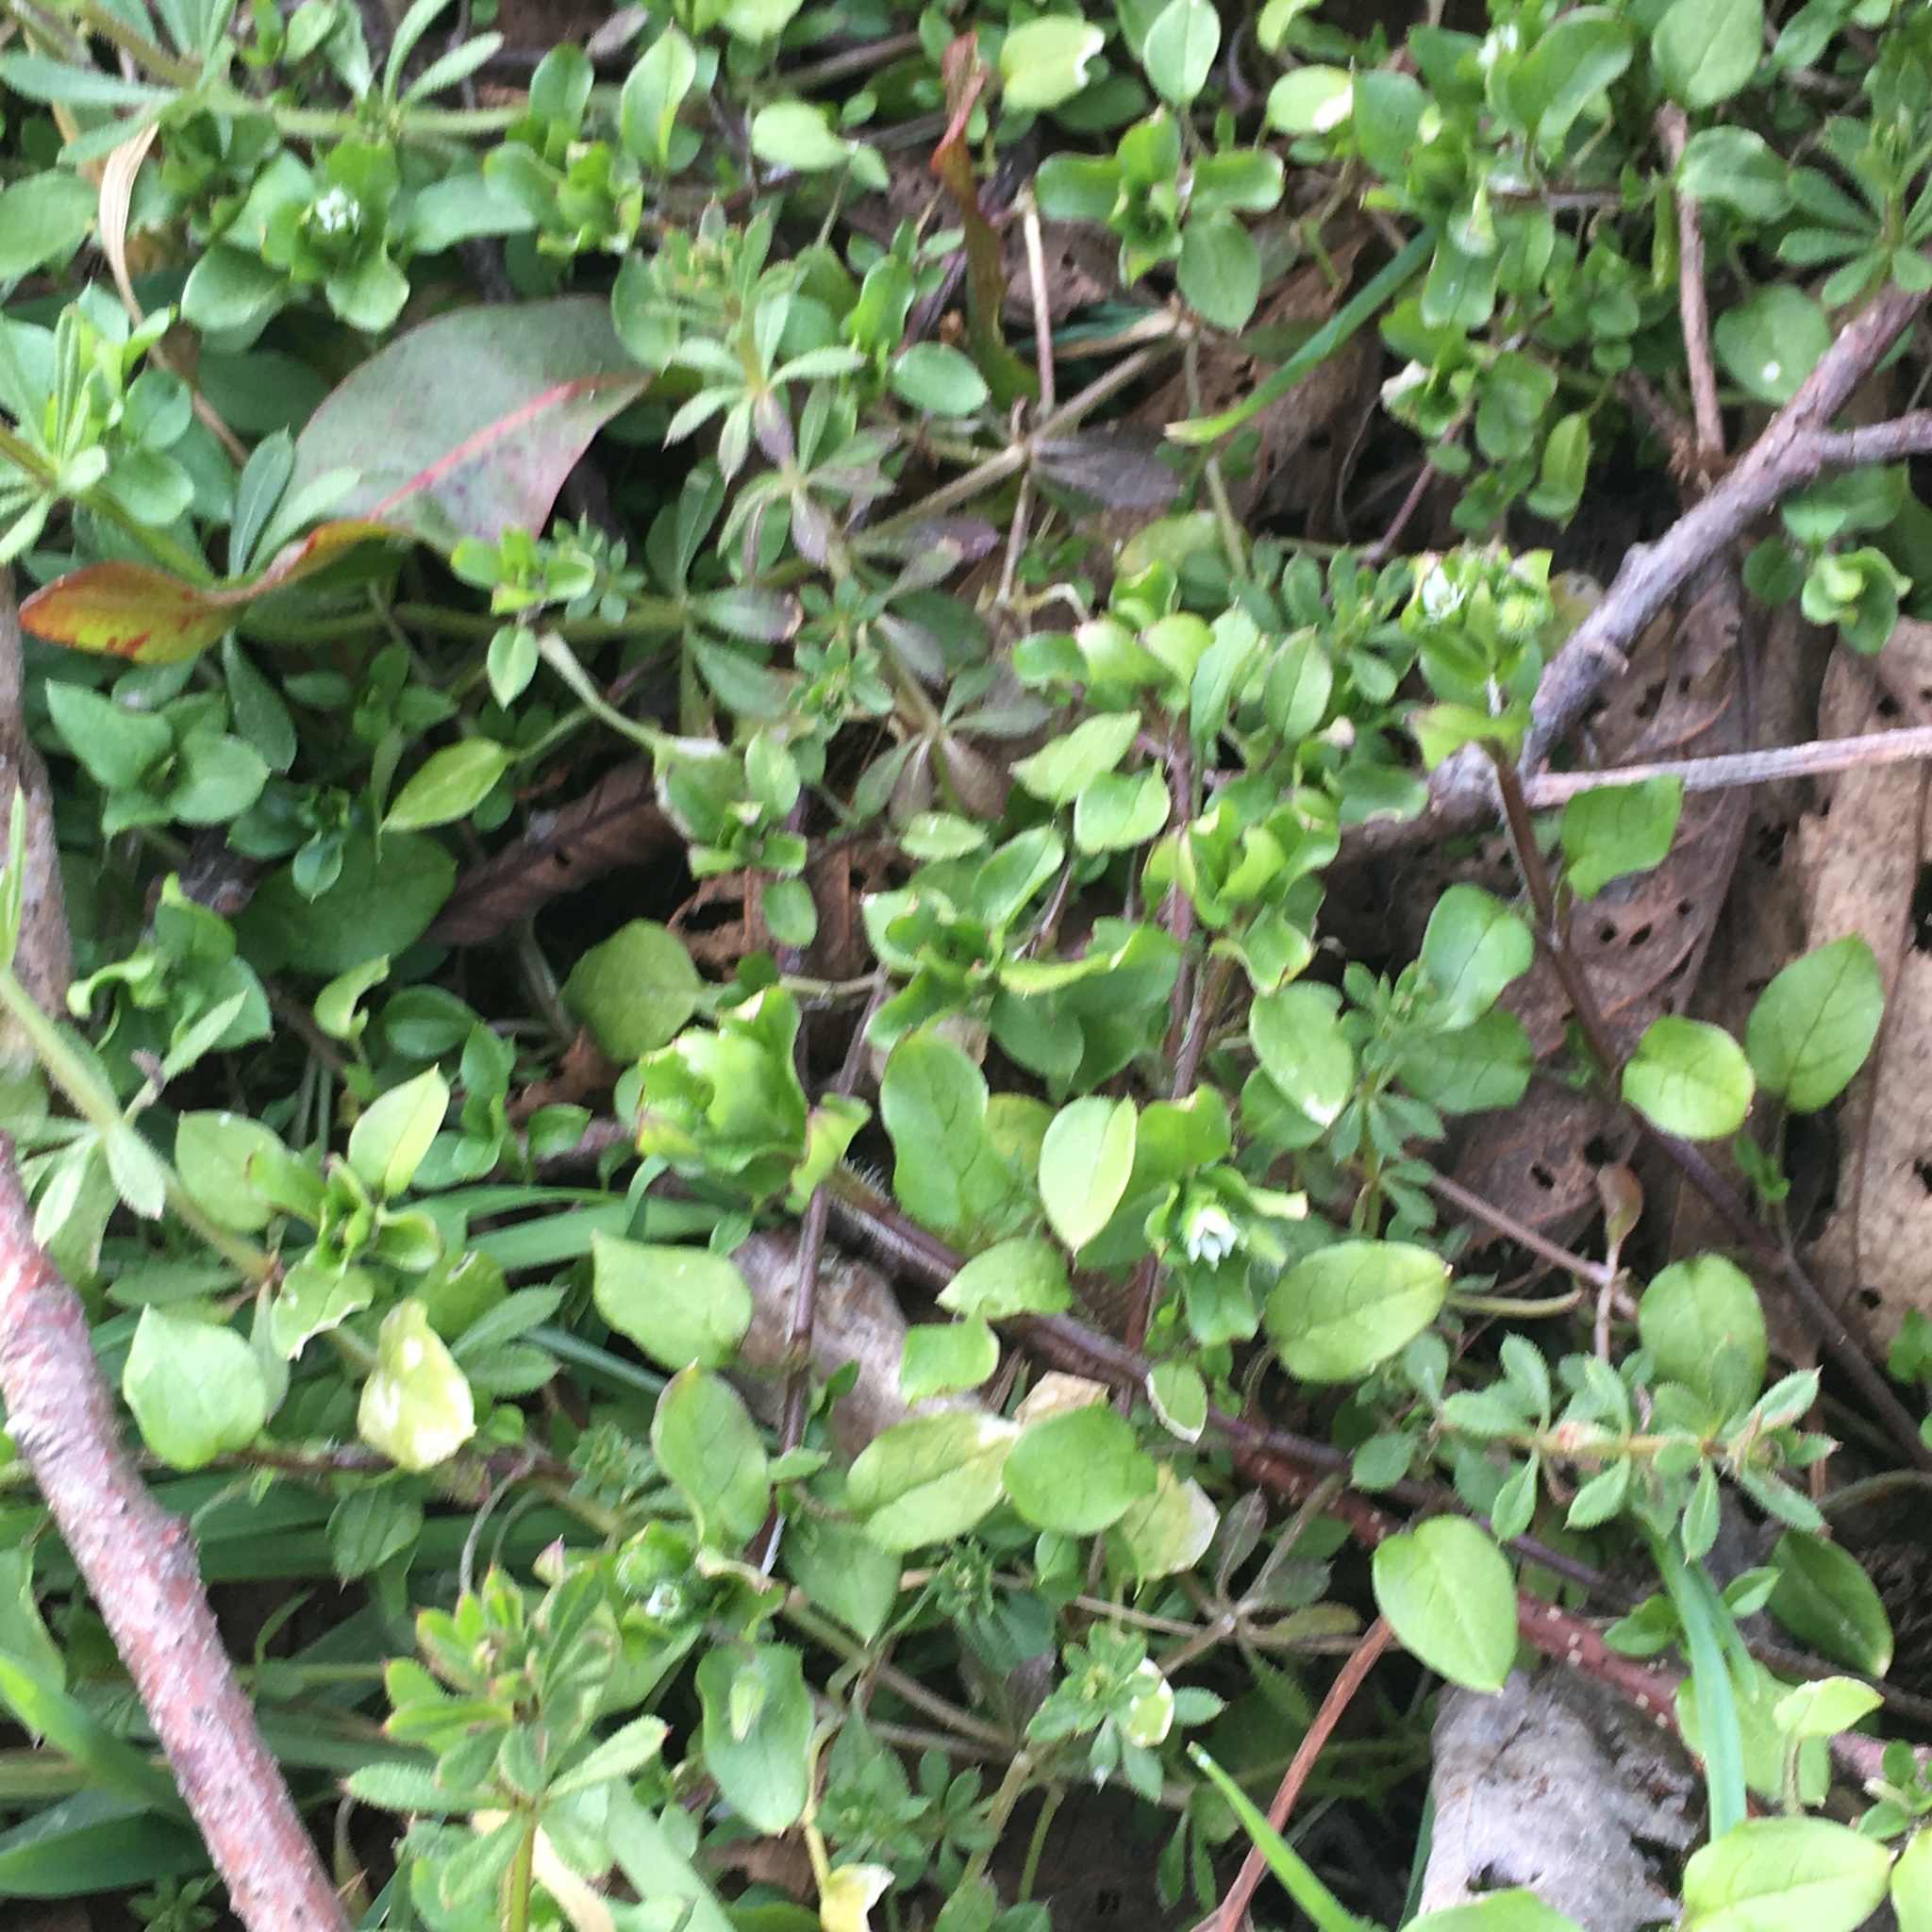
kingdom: Plantae
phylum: Tracheophyta
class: Magnoliopsida
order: Caryophyllales
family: Caryophyllaceae
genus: Stellaria
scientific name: Stellaria media
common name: Common chickweed
